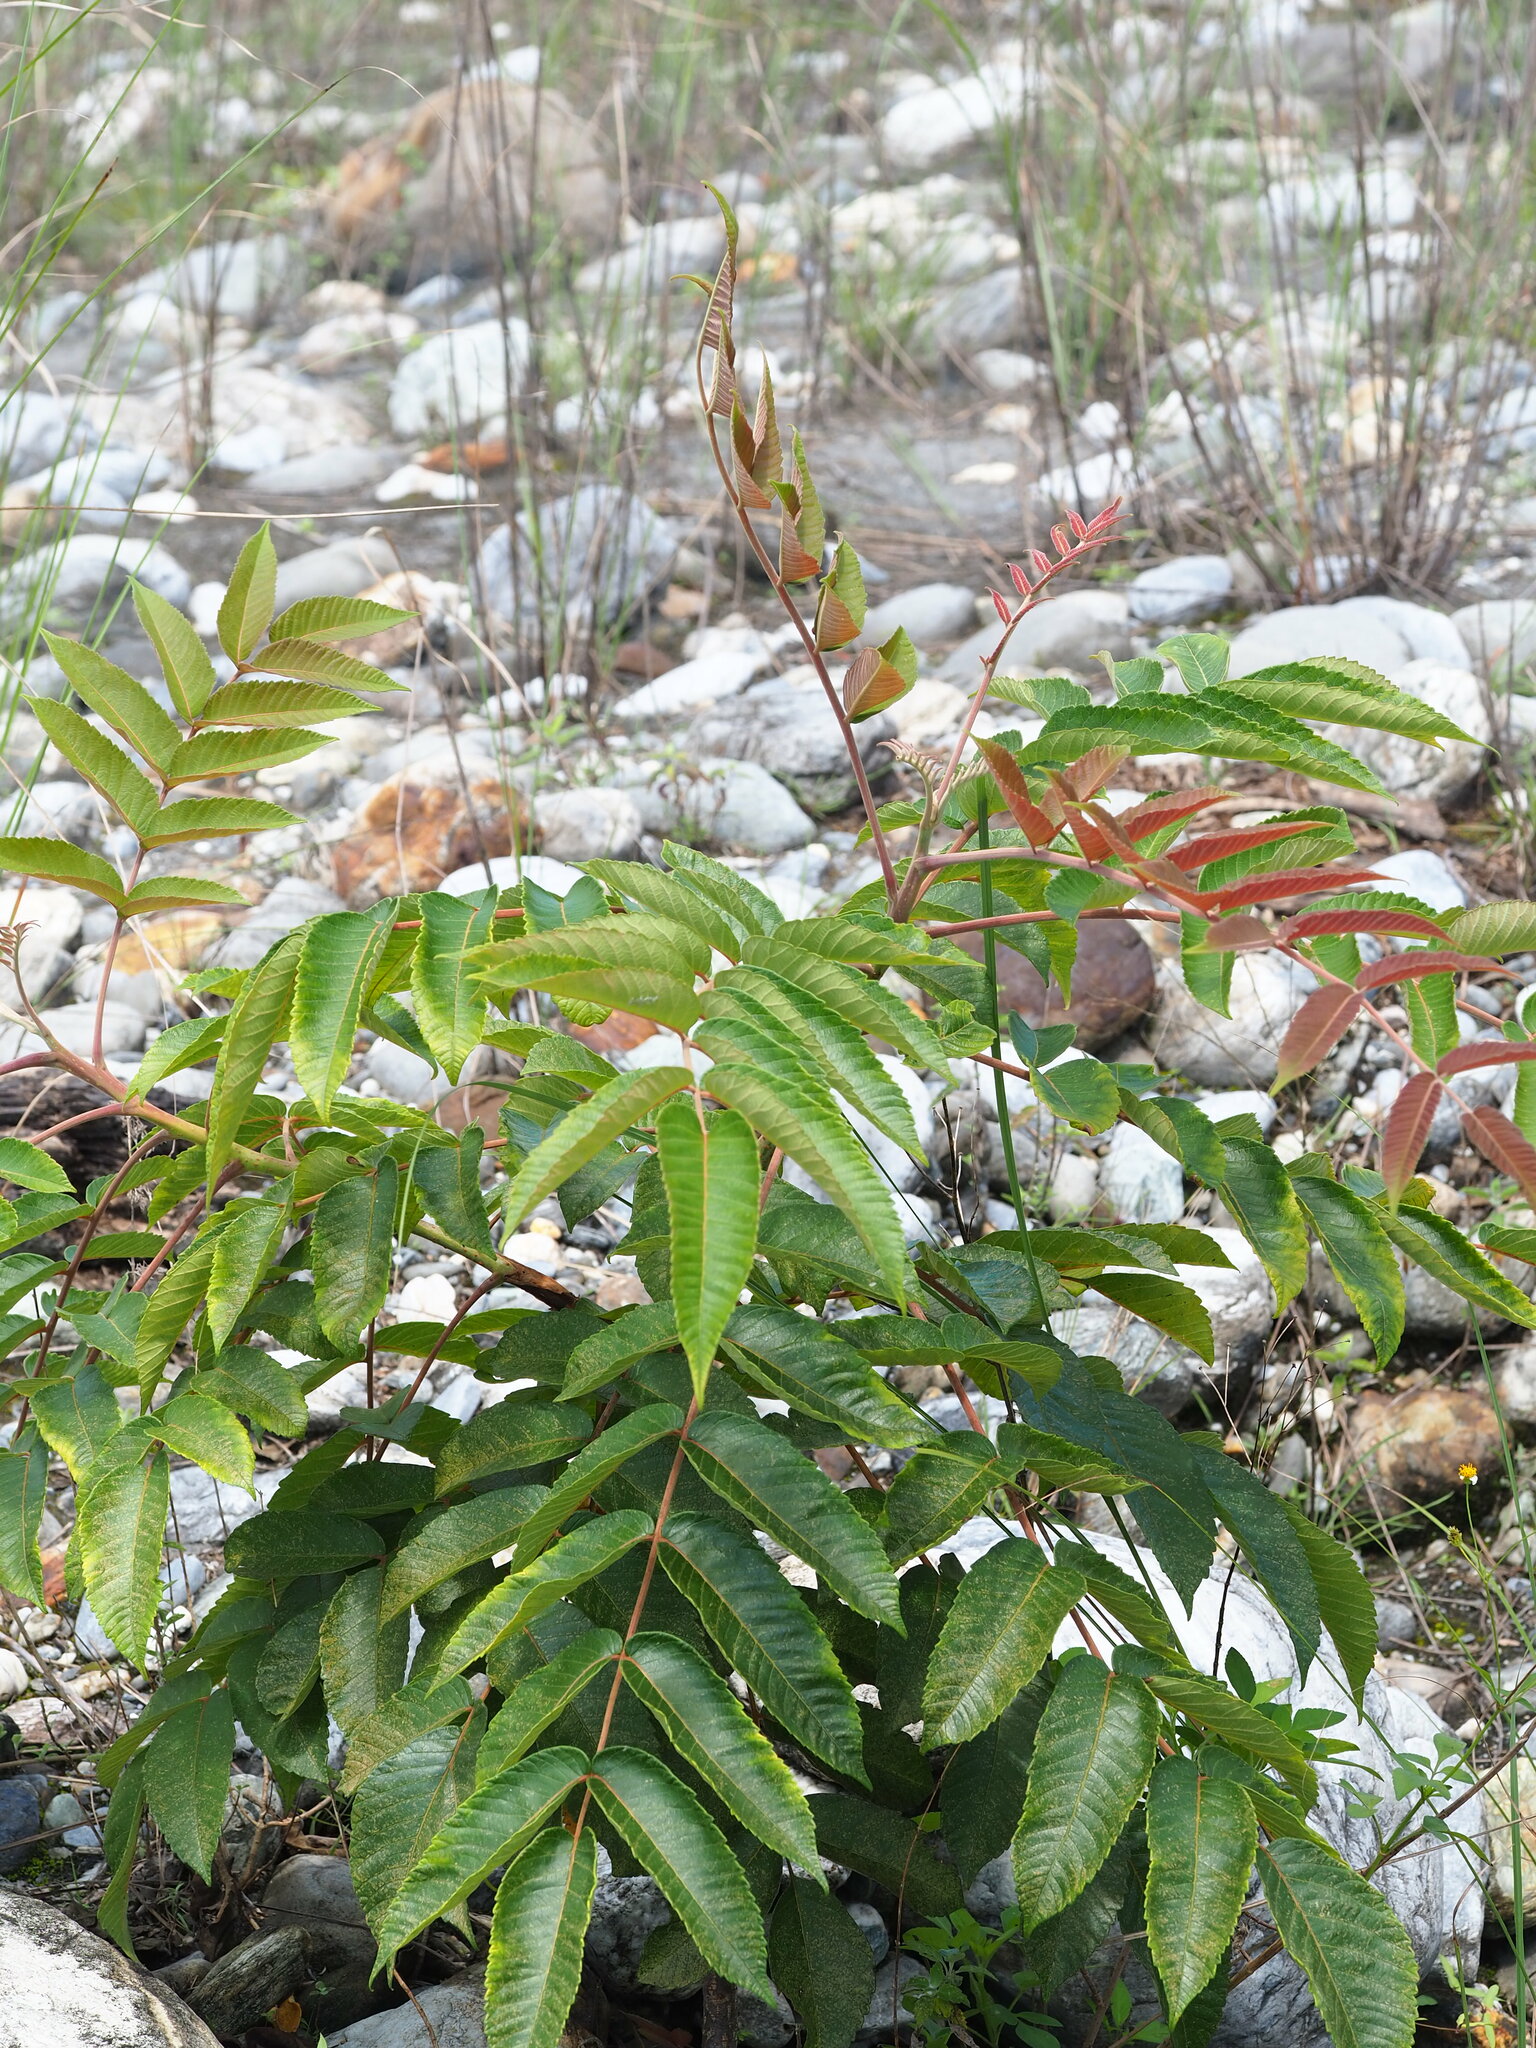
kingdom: Plantae
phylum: Tracheophyta
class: Magnoliopsida
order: Sapindales
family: Anacardiaceae
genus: Rhus
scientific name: Rhus chinensis
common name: Chinese gall
